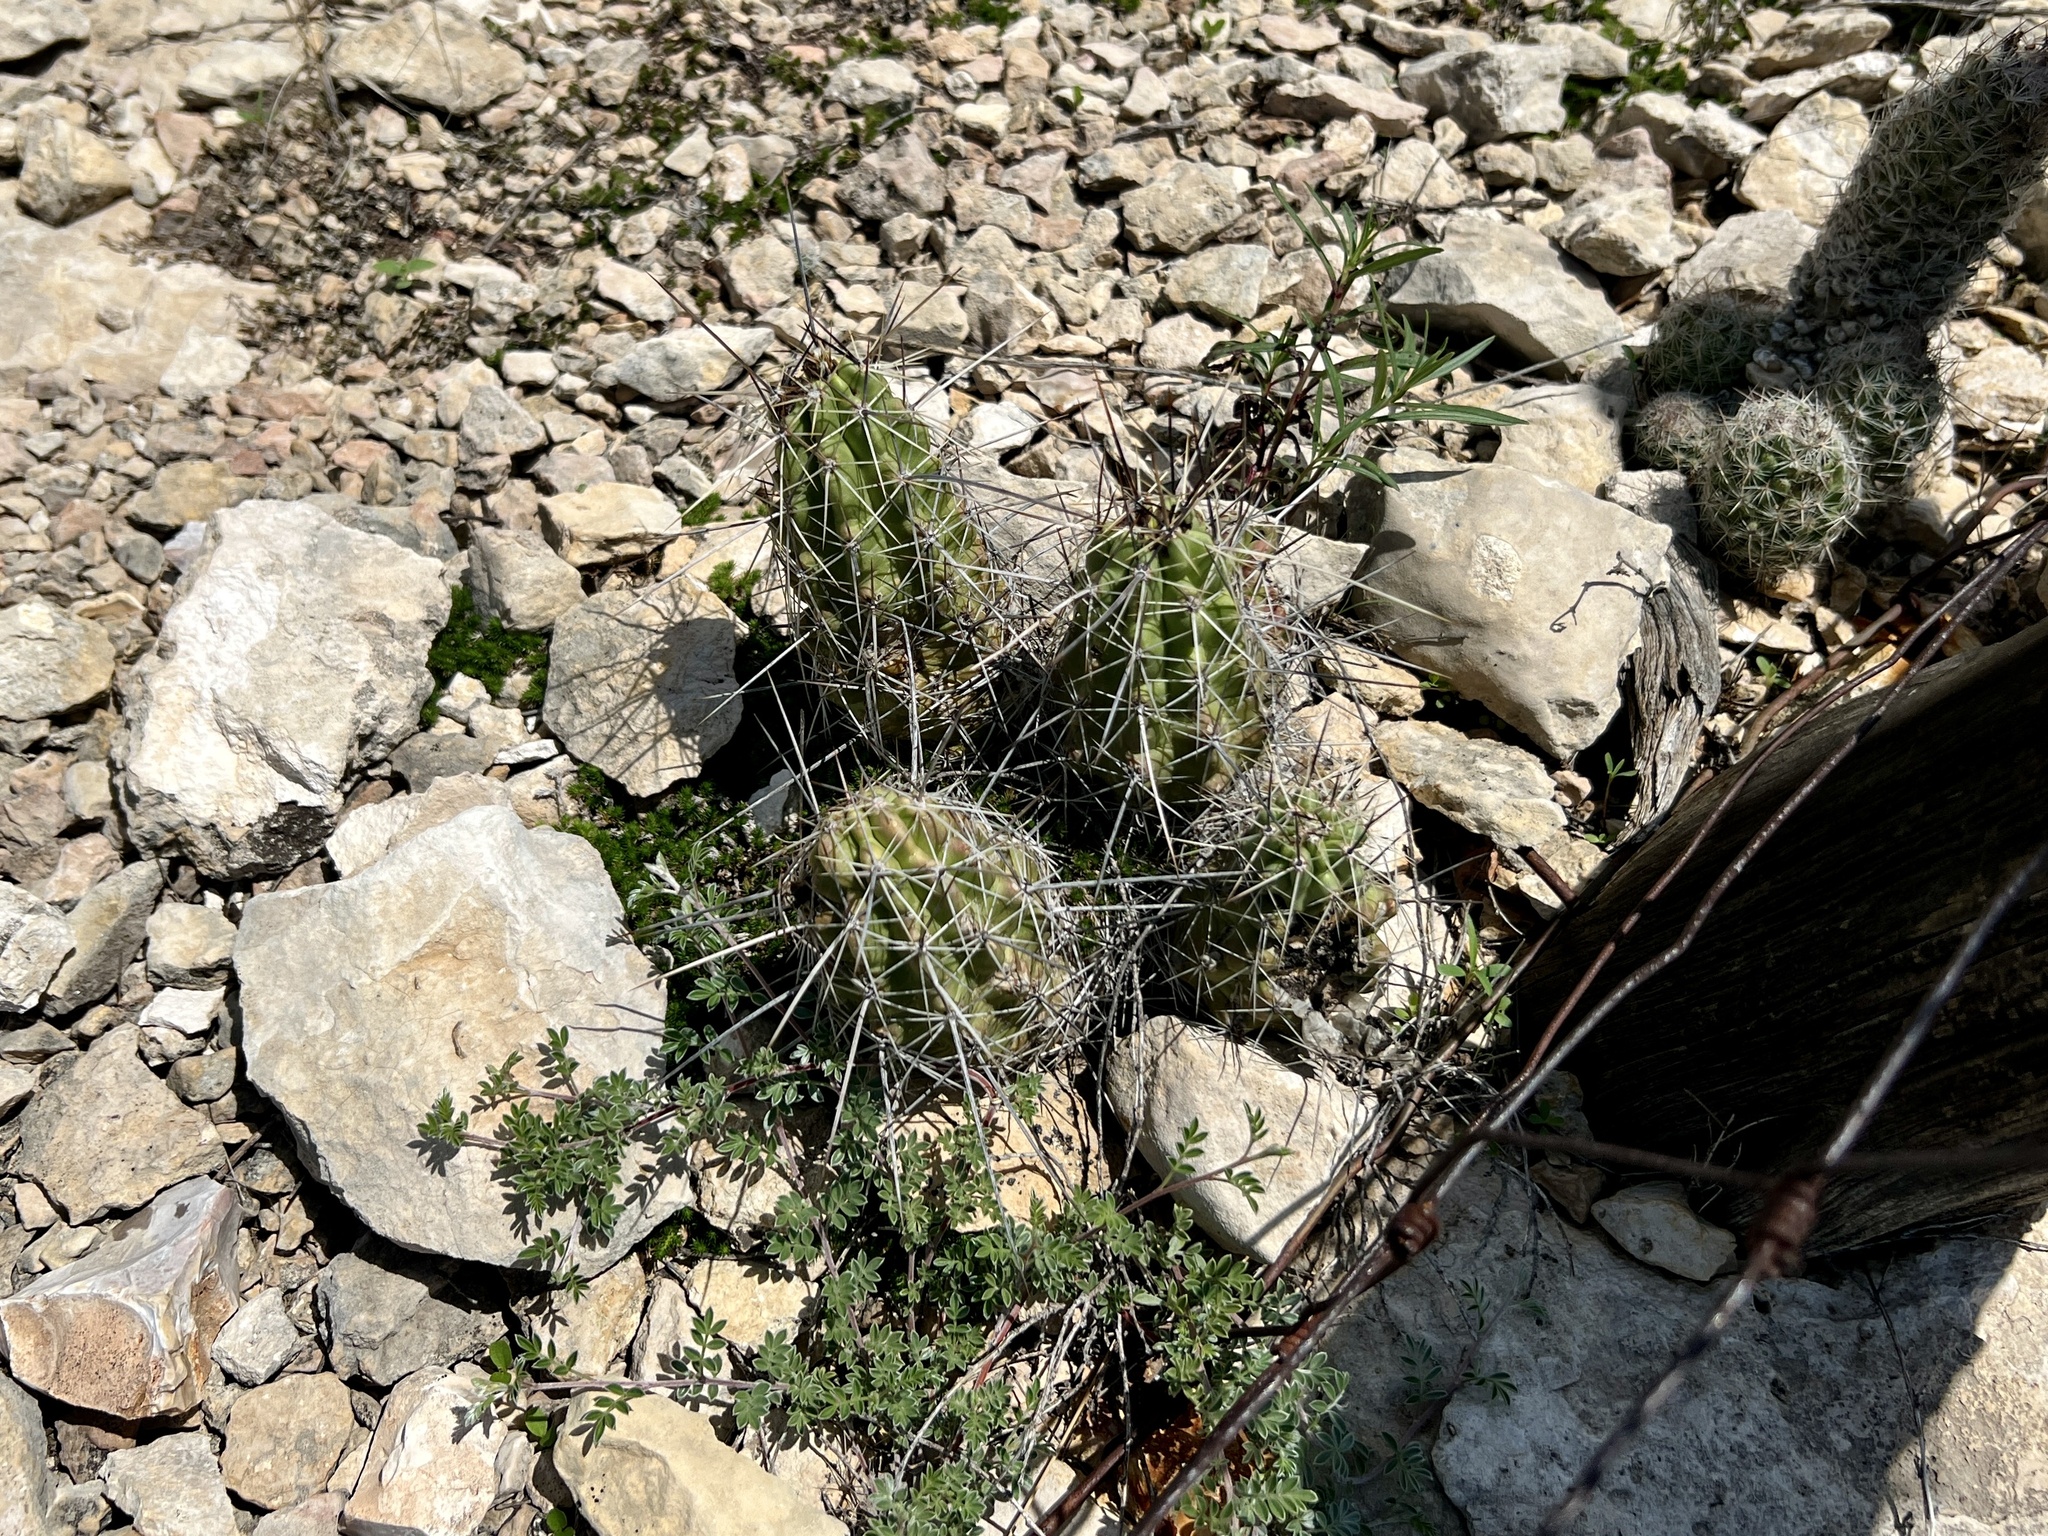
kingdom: Plantae
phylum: Tracheophyta
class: Magnoliopsida
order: Caryophyllales
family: Cactaceae
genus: Echinocereus
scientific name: Echinocereus enneacanthus
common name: Pitaya
